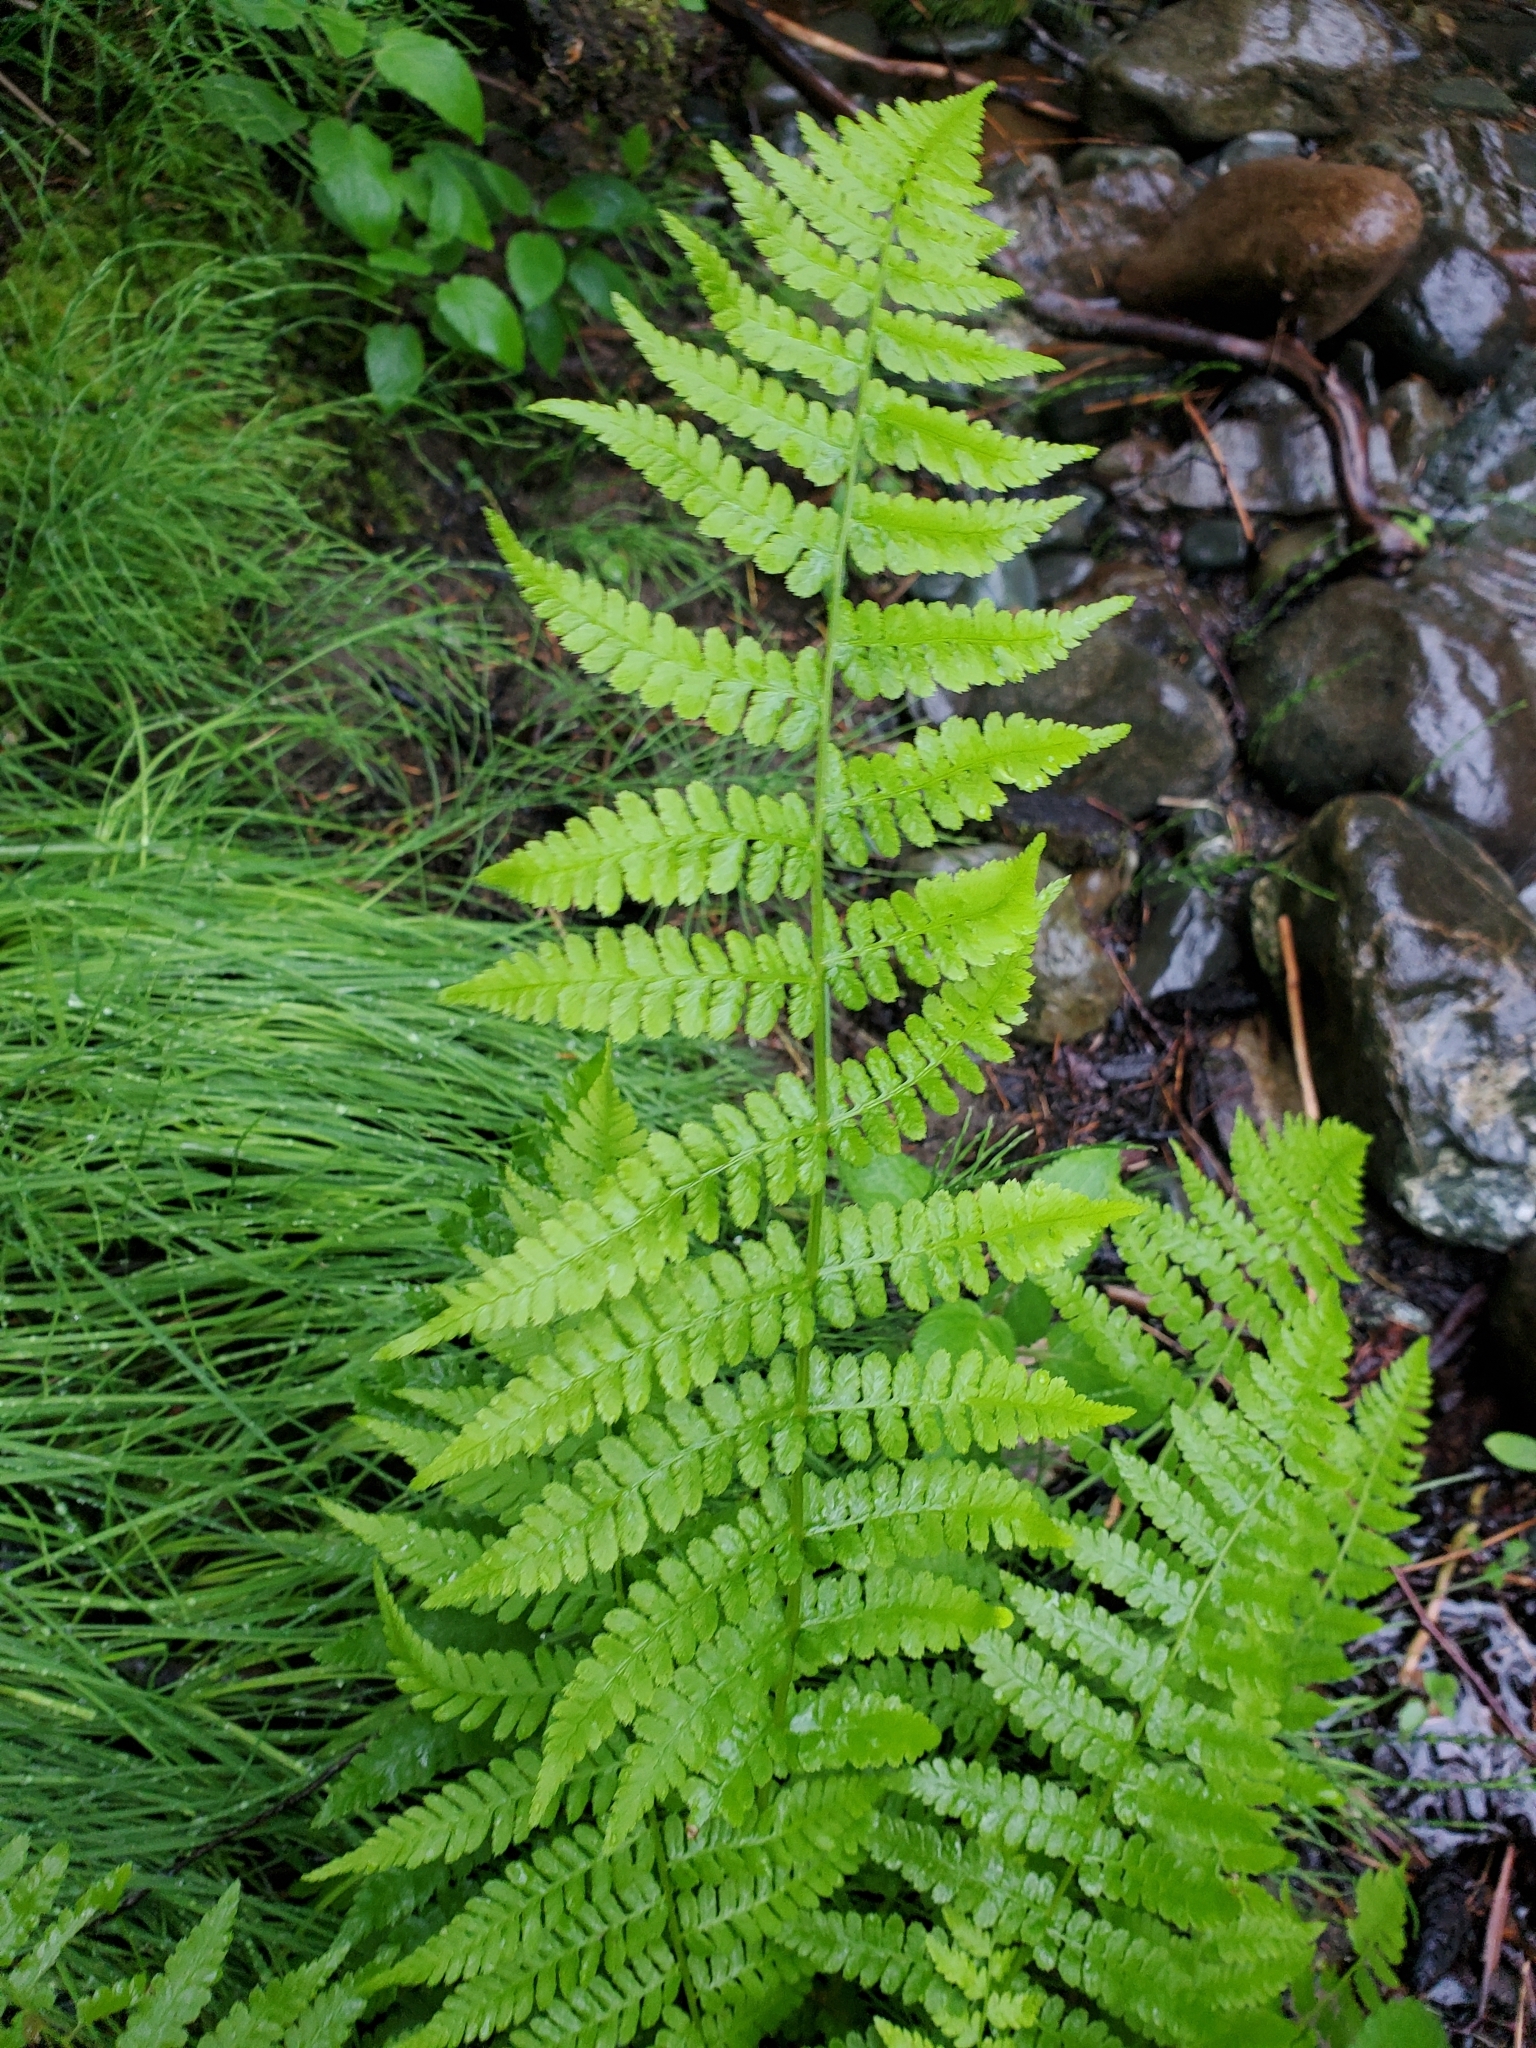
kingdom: Plantae
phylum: Tracheophyta
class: Polypodiopsida
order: Polypodiales
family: Athyriaceae
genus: Athyrium
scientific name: Athyrium filix-femina
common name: Lady fern
